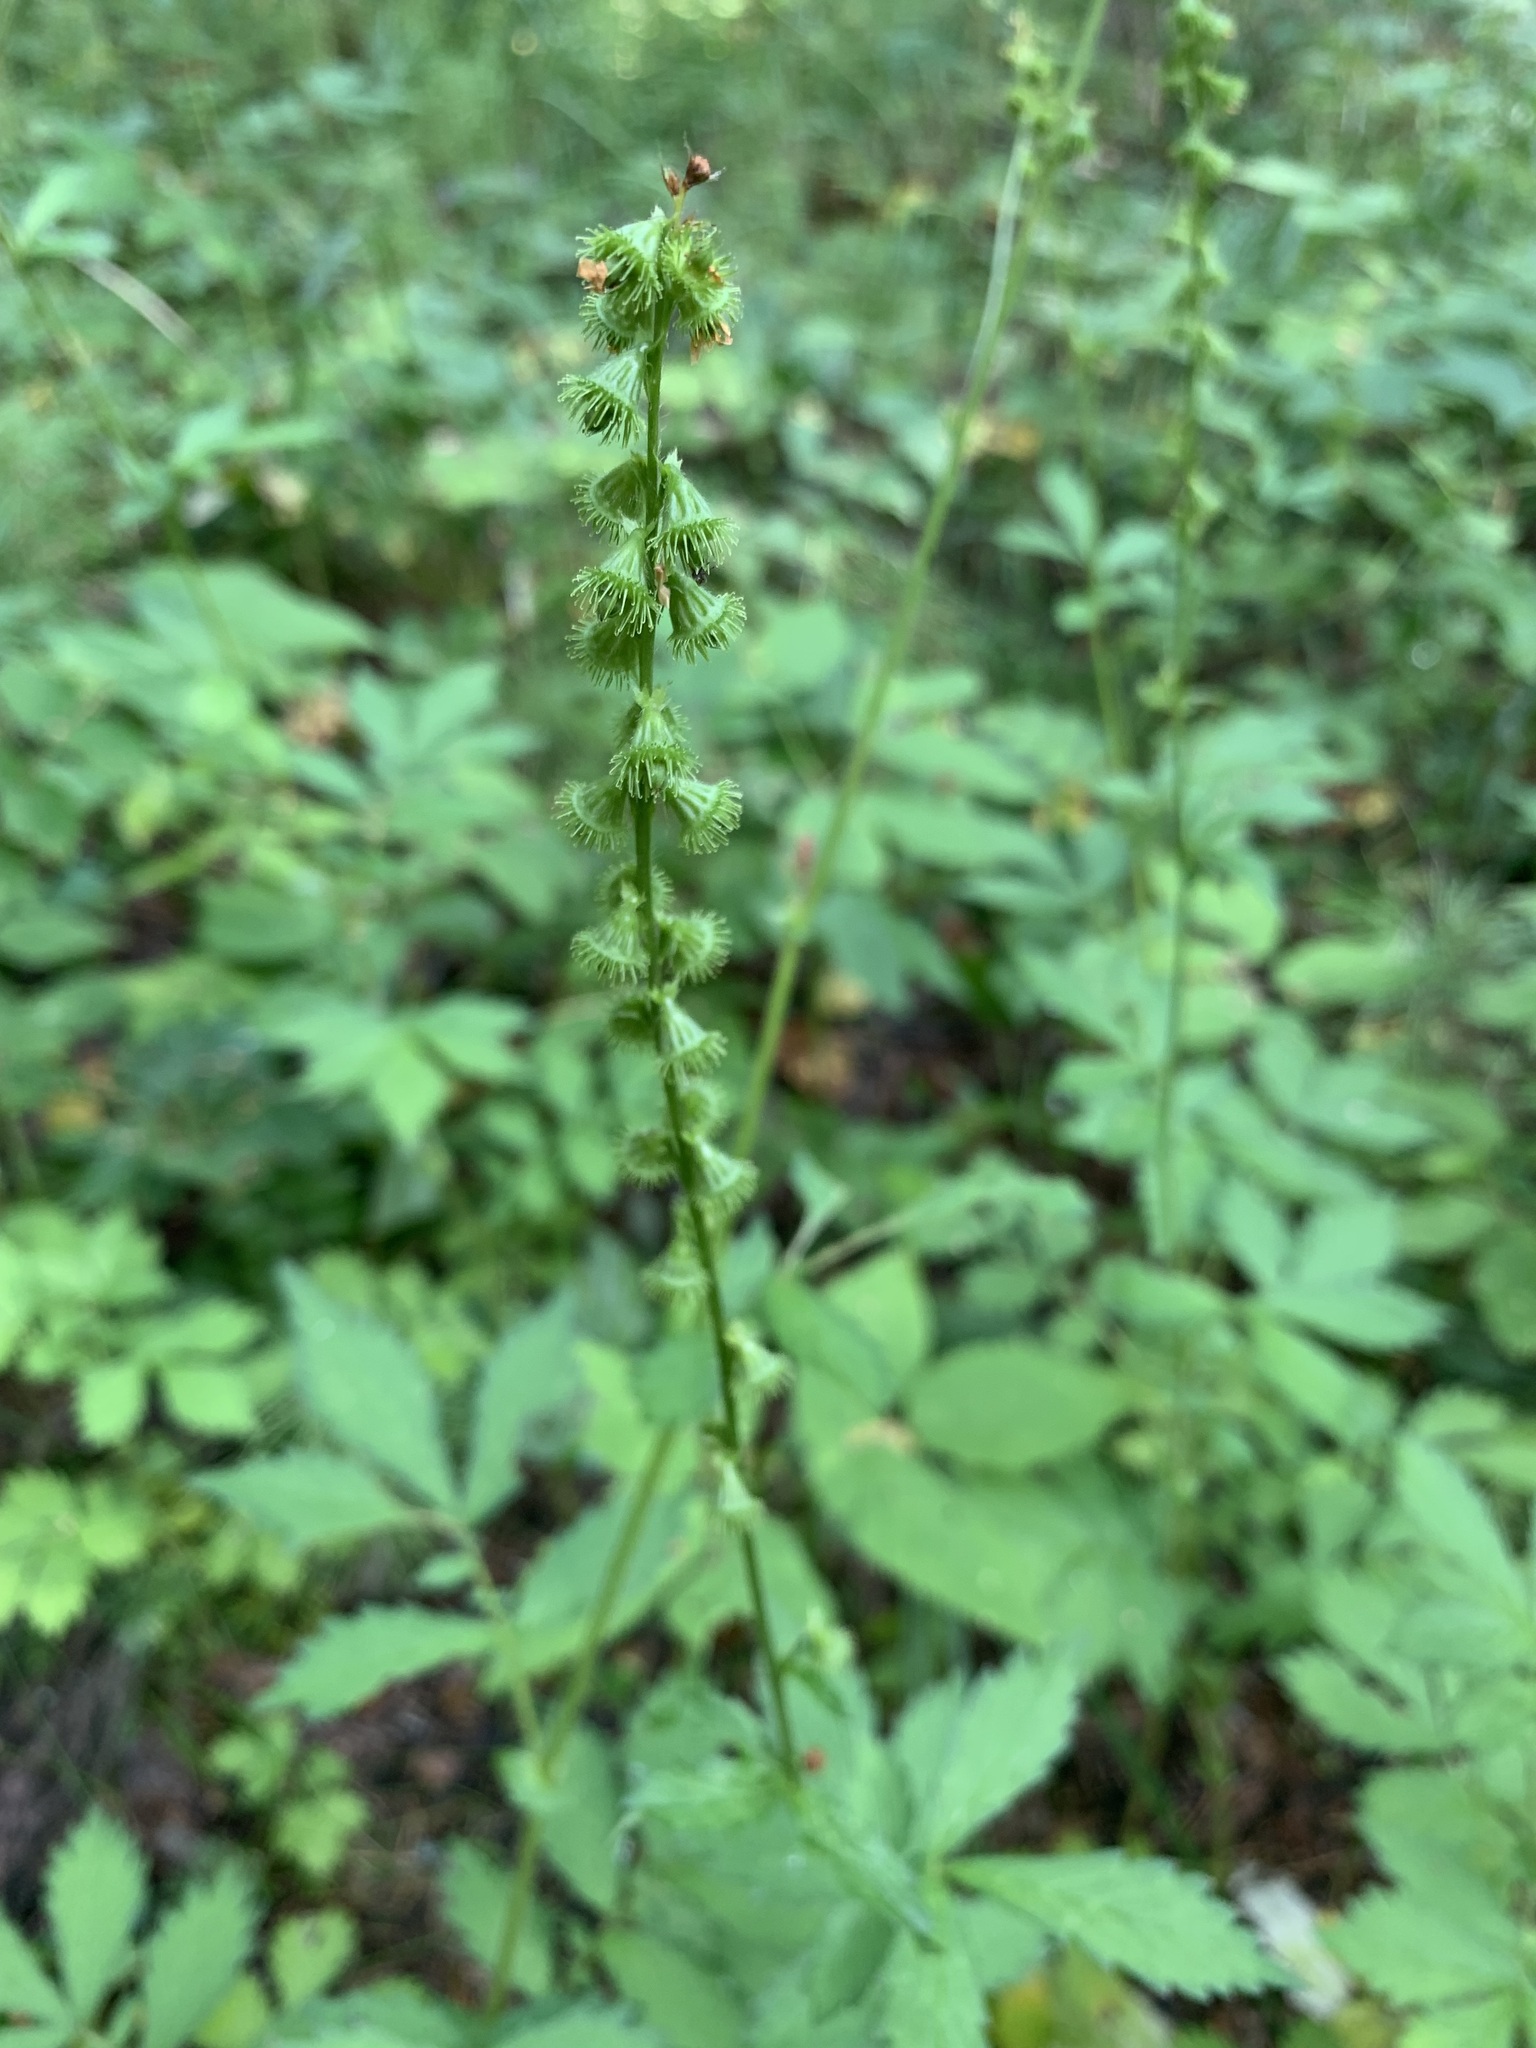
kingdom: Plantae
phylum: Tracheophyta
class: Magnoliopsida
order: Rosales
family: Rosaceae
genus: Agrimonia
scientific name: Agrimonia pilosa
